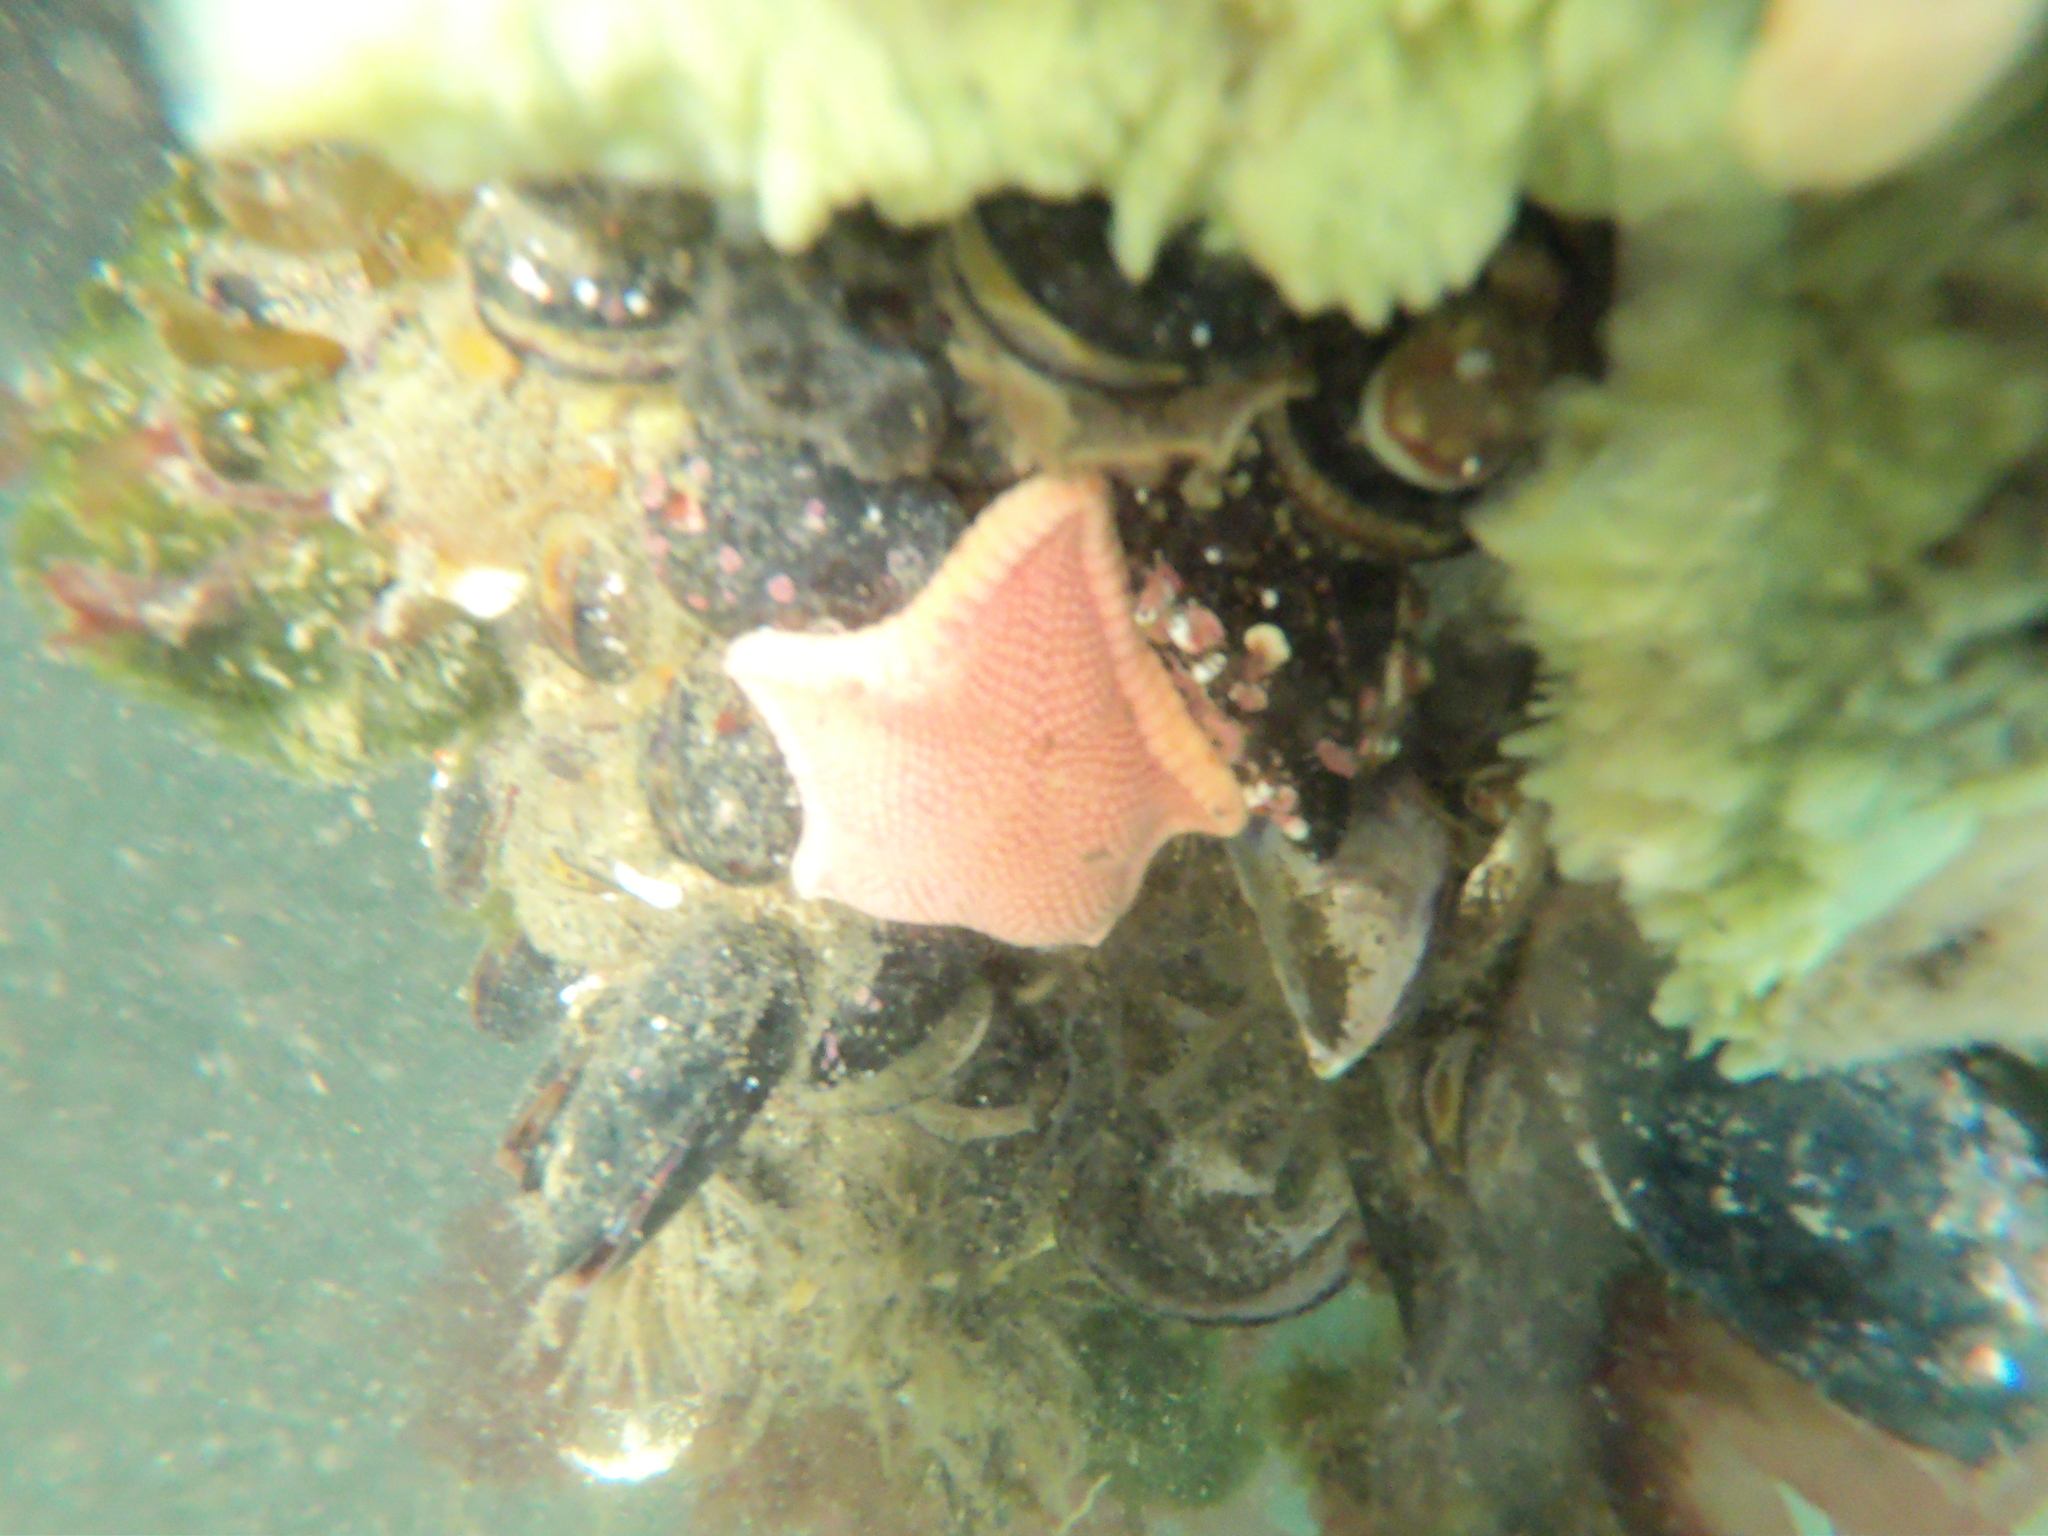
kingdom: Animalia
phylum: Echinodermata
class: Asteroidea
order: Valvatida
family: Odontasteridae
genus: Odontaster
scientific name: Odontaster penicillatus
